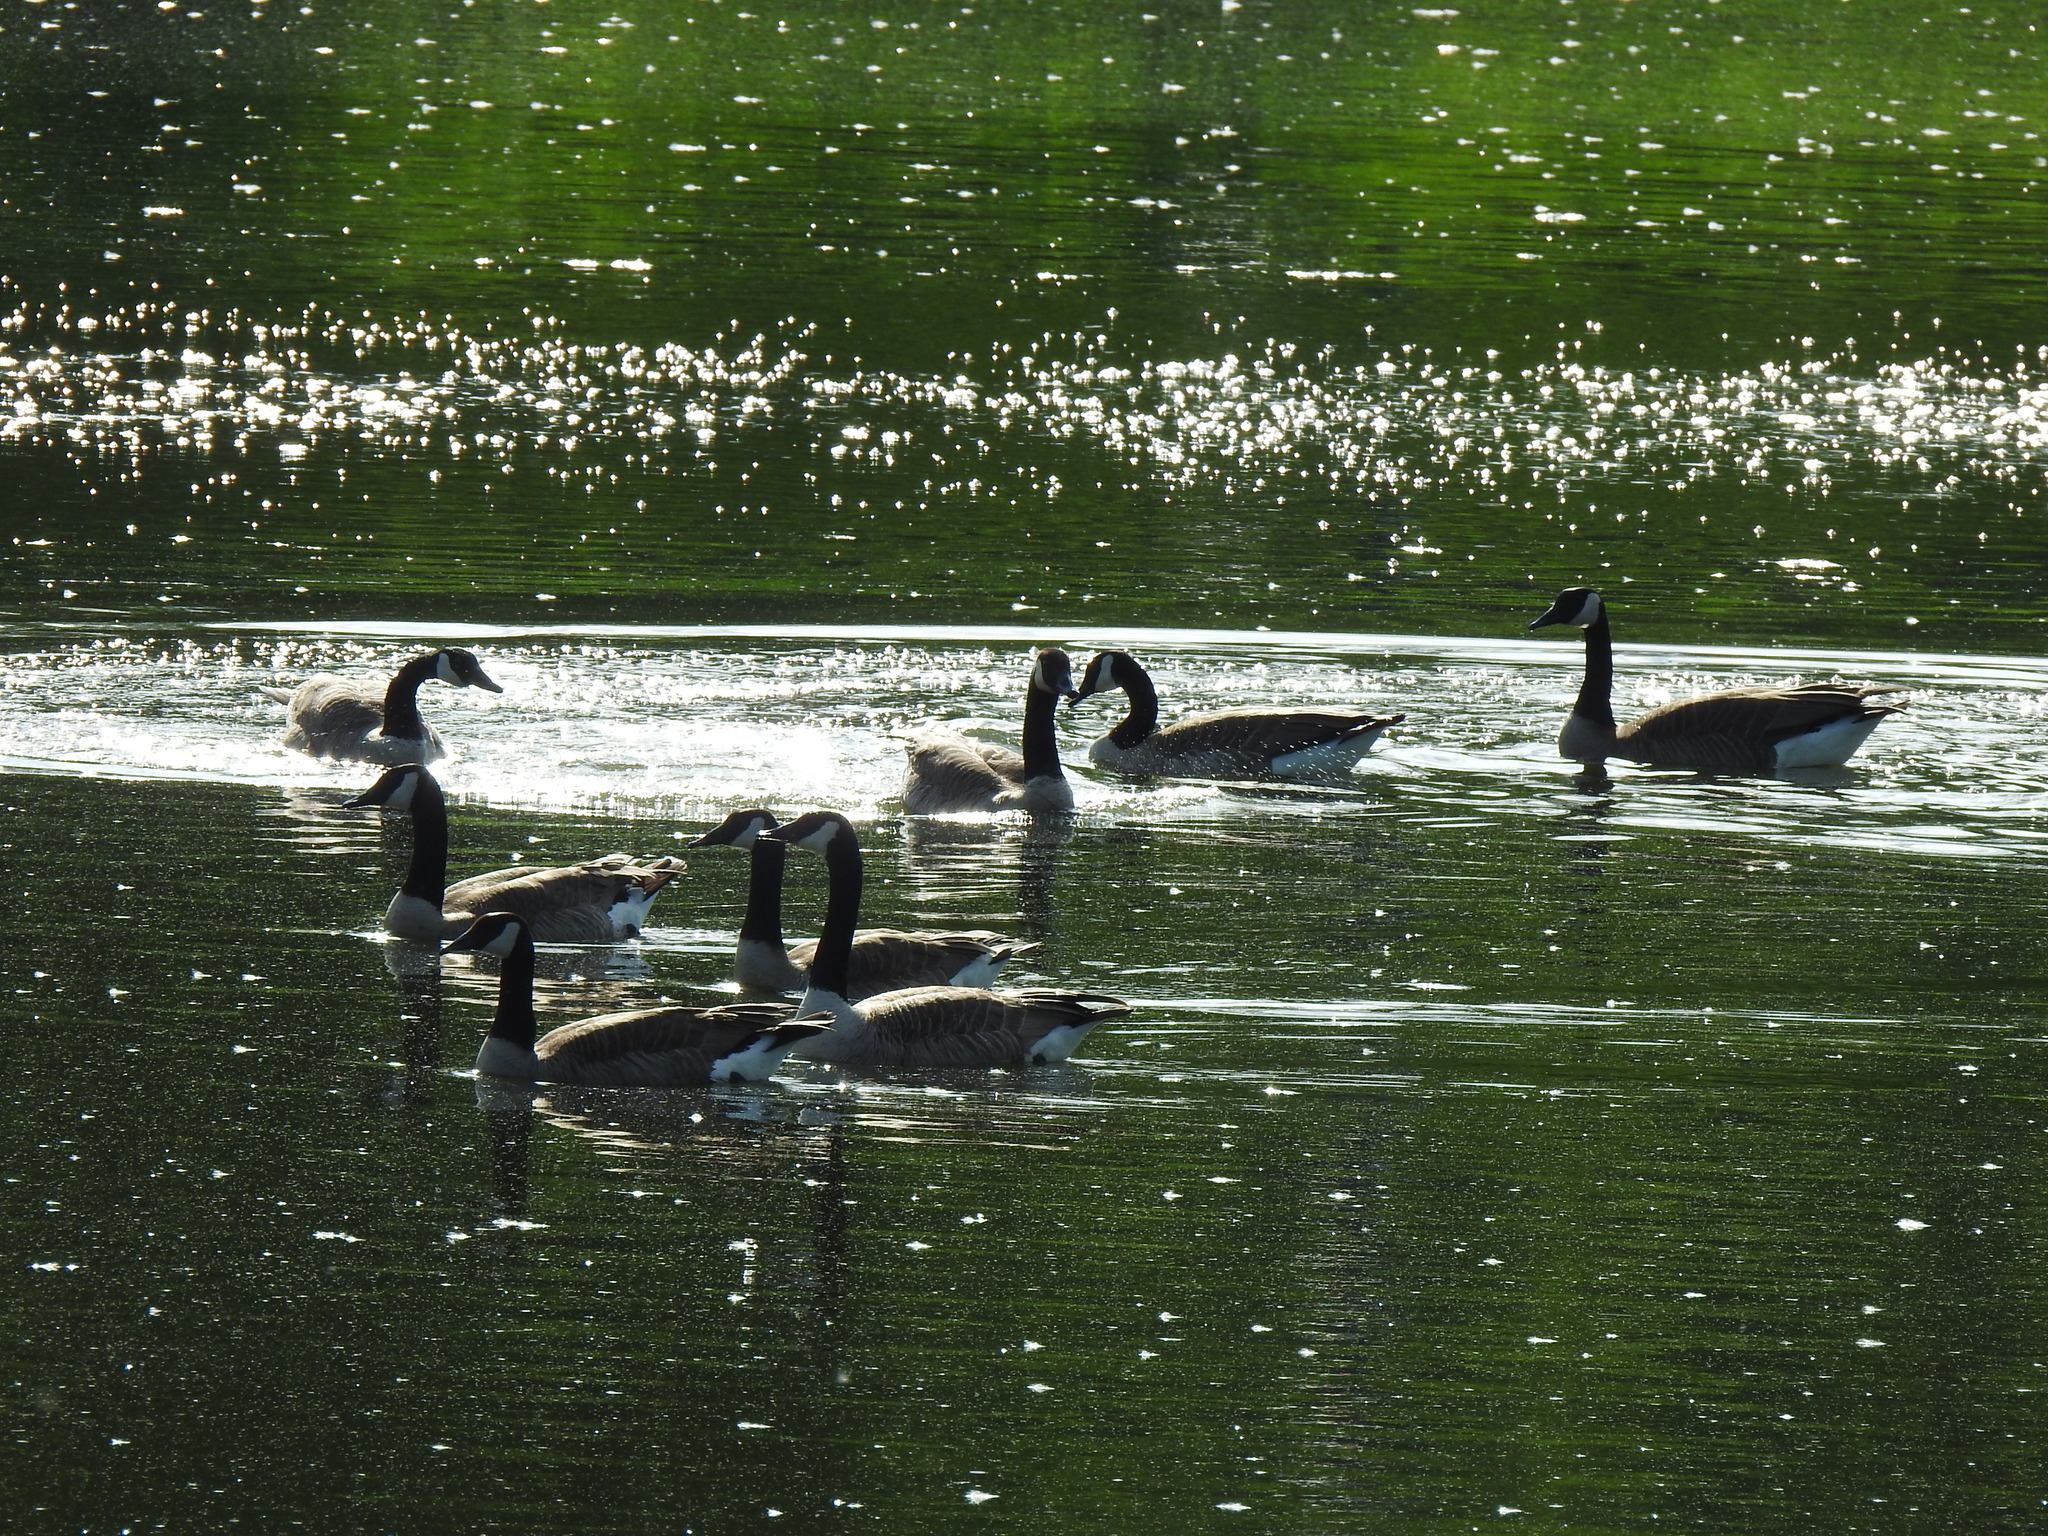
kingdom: Animalia
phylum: Chordata
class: Aves
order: Anseriformes
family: Anatidae
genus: Branta
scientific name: Branta canadensis
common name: Canada goose
